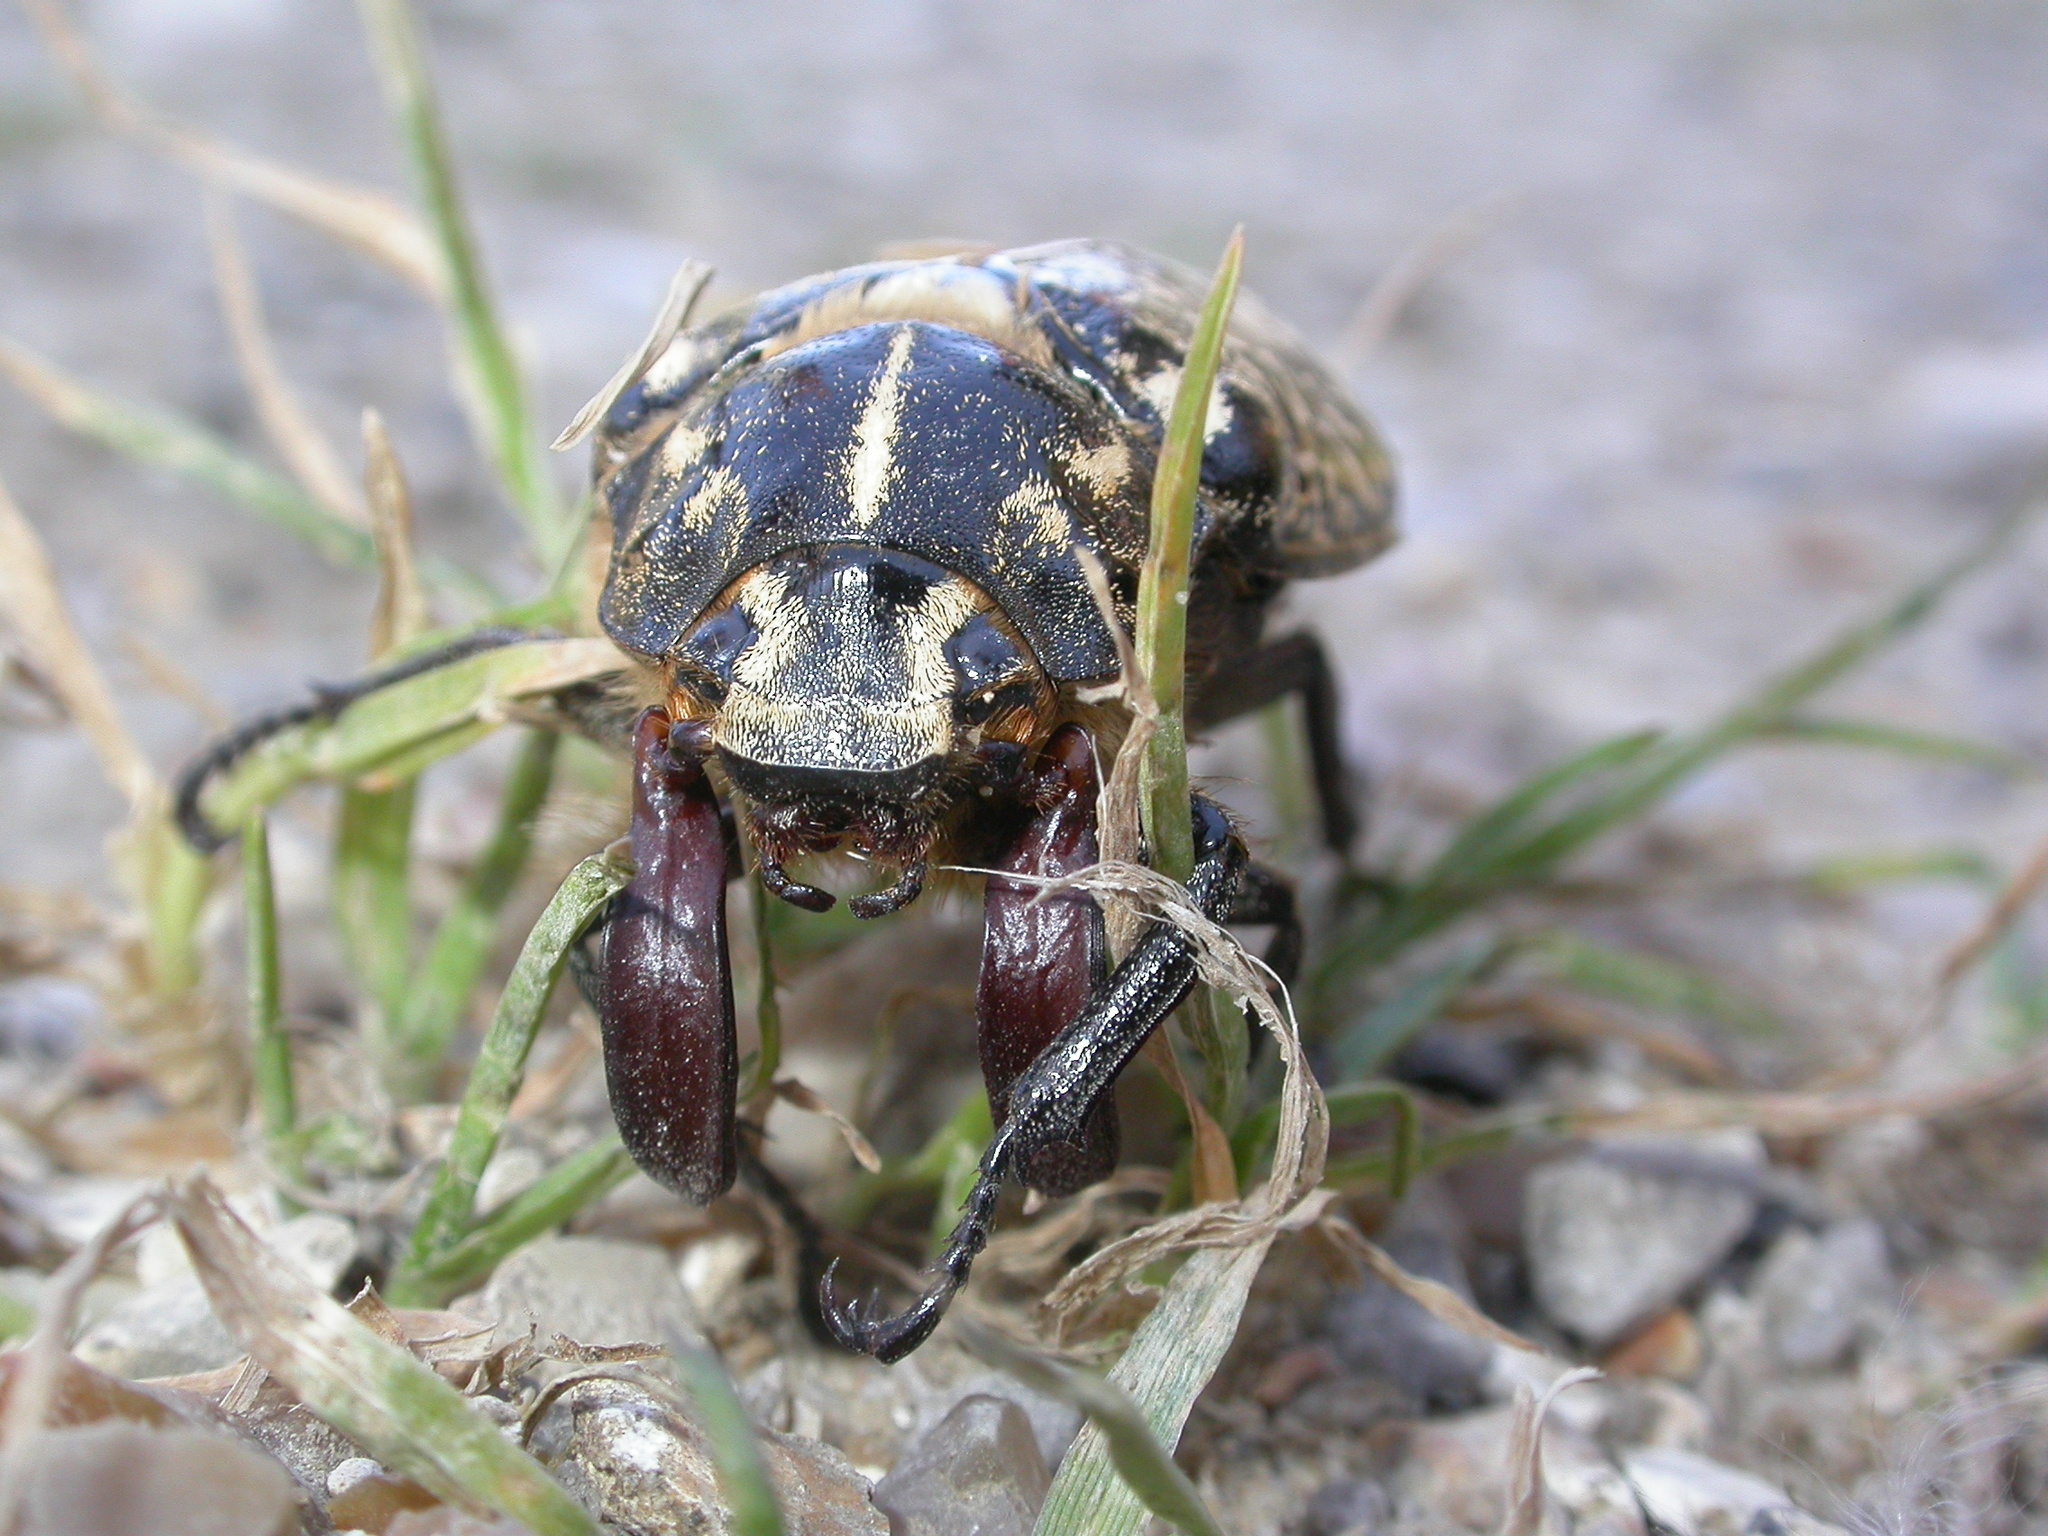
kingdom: Animalia
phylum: Arthropoda
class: Insecta
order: Coleoptera
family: Scarabaeidae
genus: Polyphylla
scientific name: Polyphylla fullo
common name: Pine chafer
